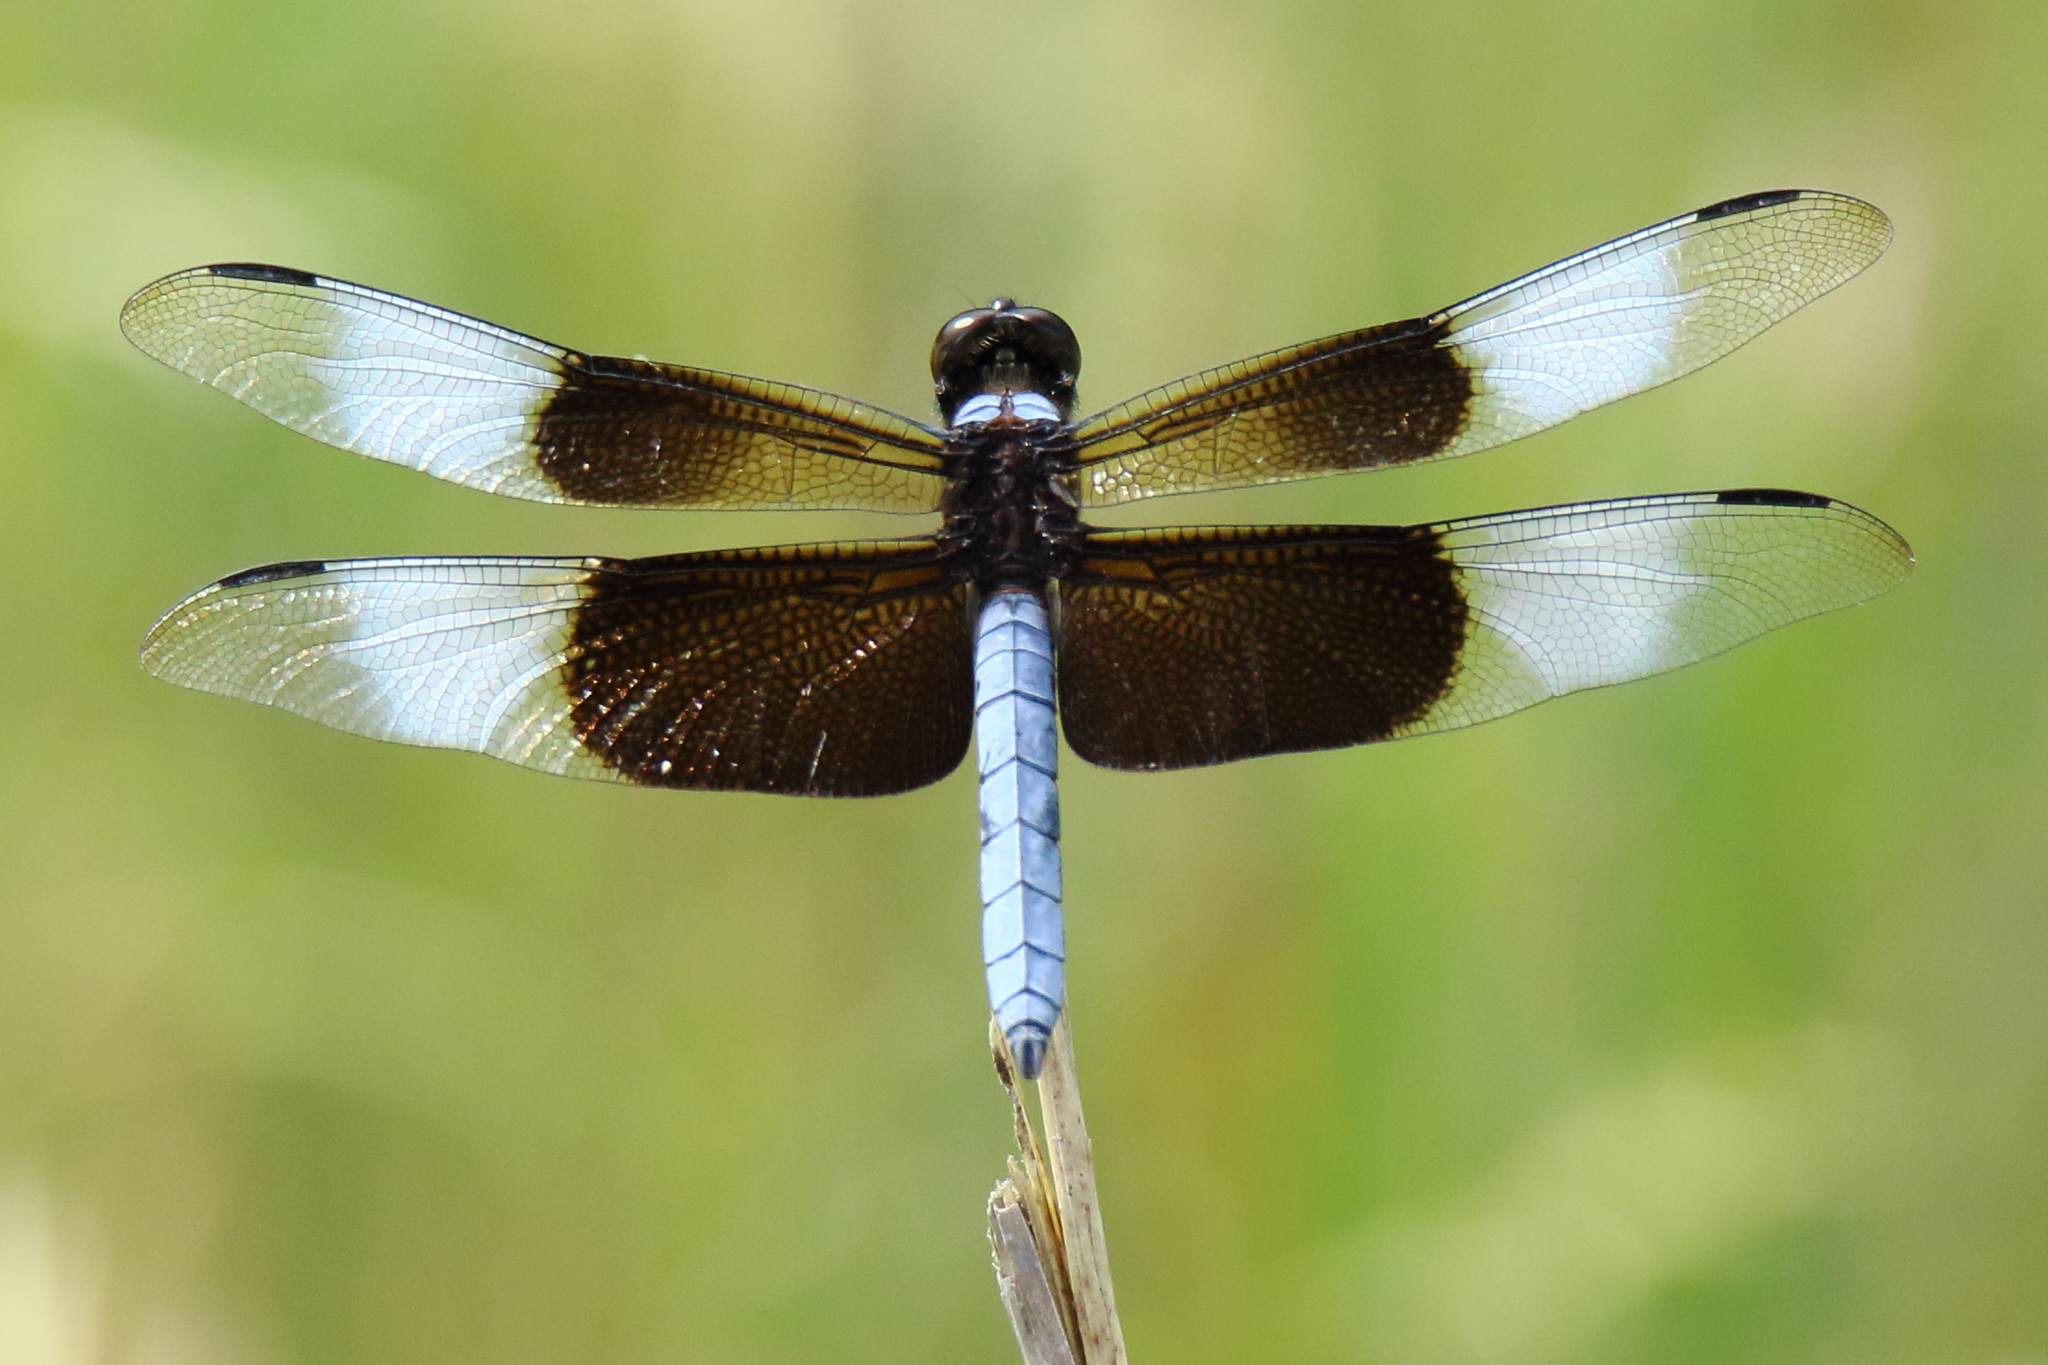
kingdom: Animalia
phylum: Arthropoda
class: Insecta
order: Odonata
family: Libellulidae
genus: Libellula
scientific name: Libellula luctuosa
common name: Widow skimmer
